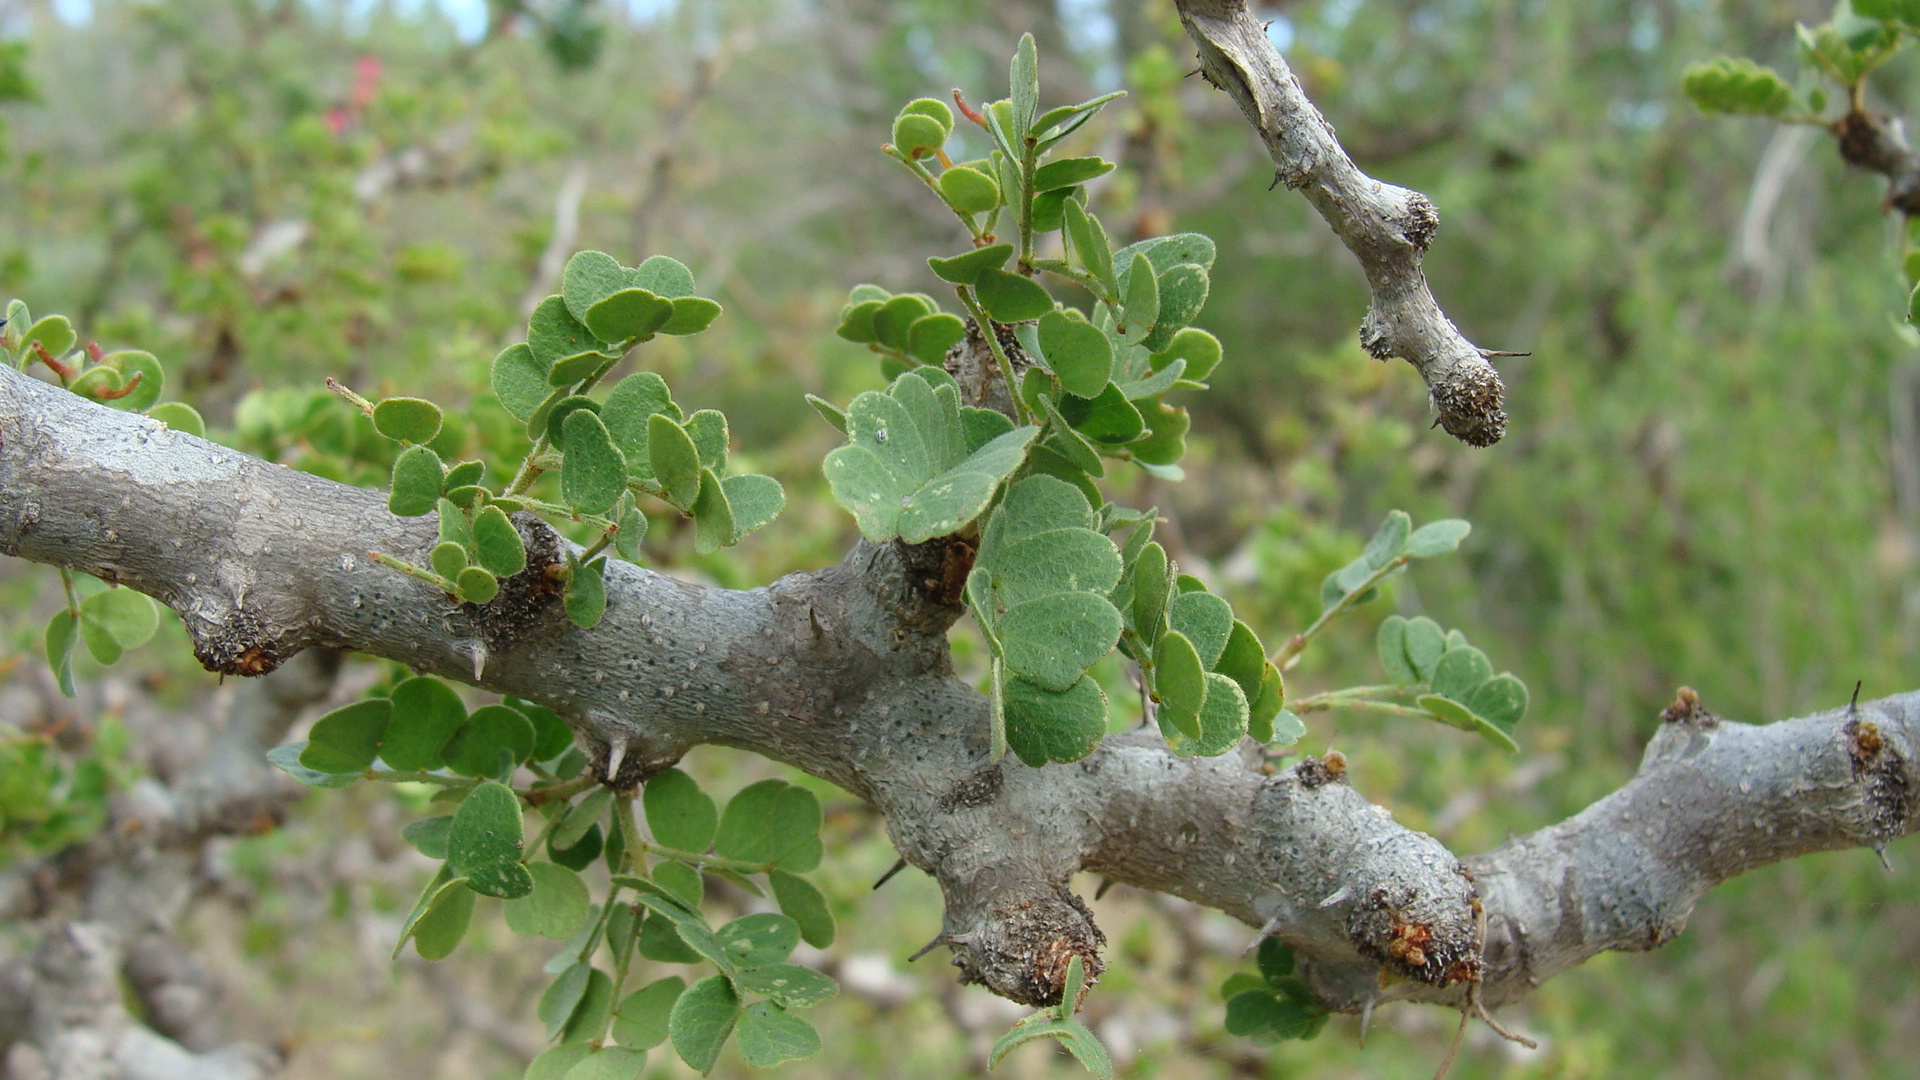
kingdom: Plantae
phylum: Tracheophyta
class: Magnoliopsida
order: Fabales
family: Fabaceae
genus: Ebenopsis
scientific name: Ebenopsis confinis
